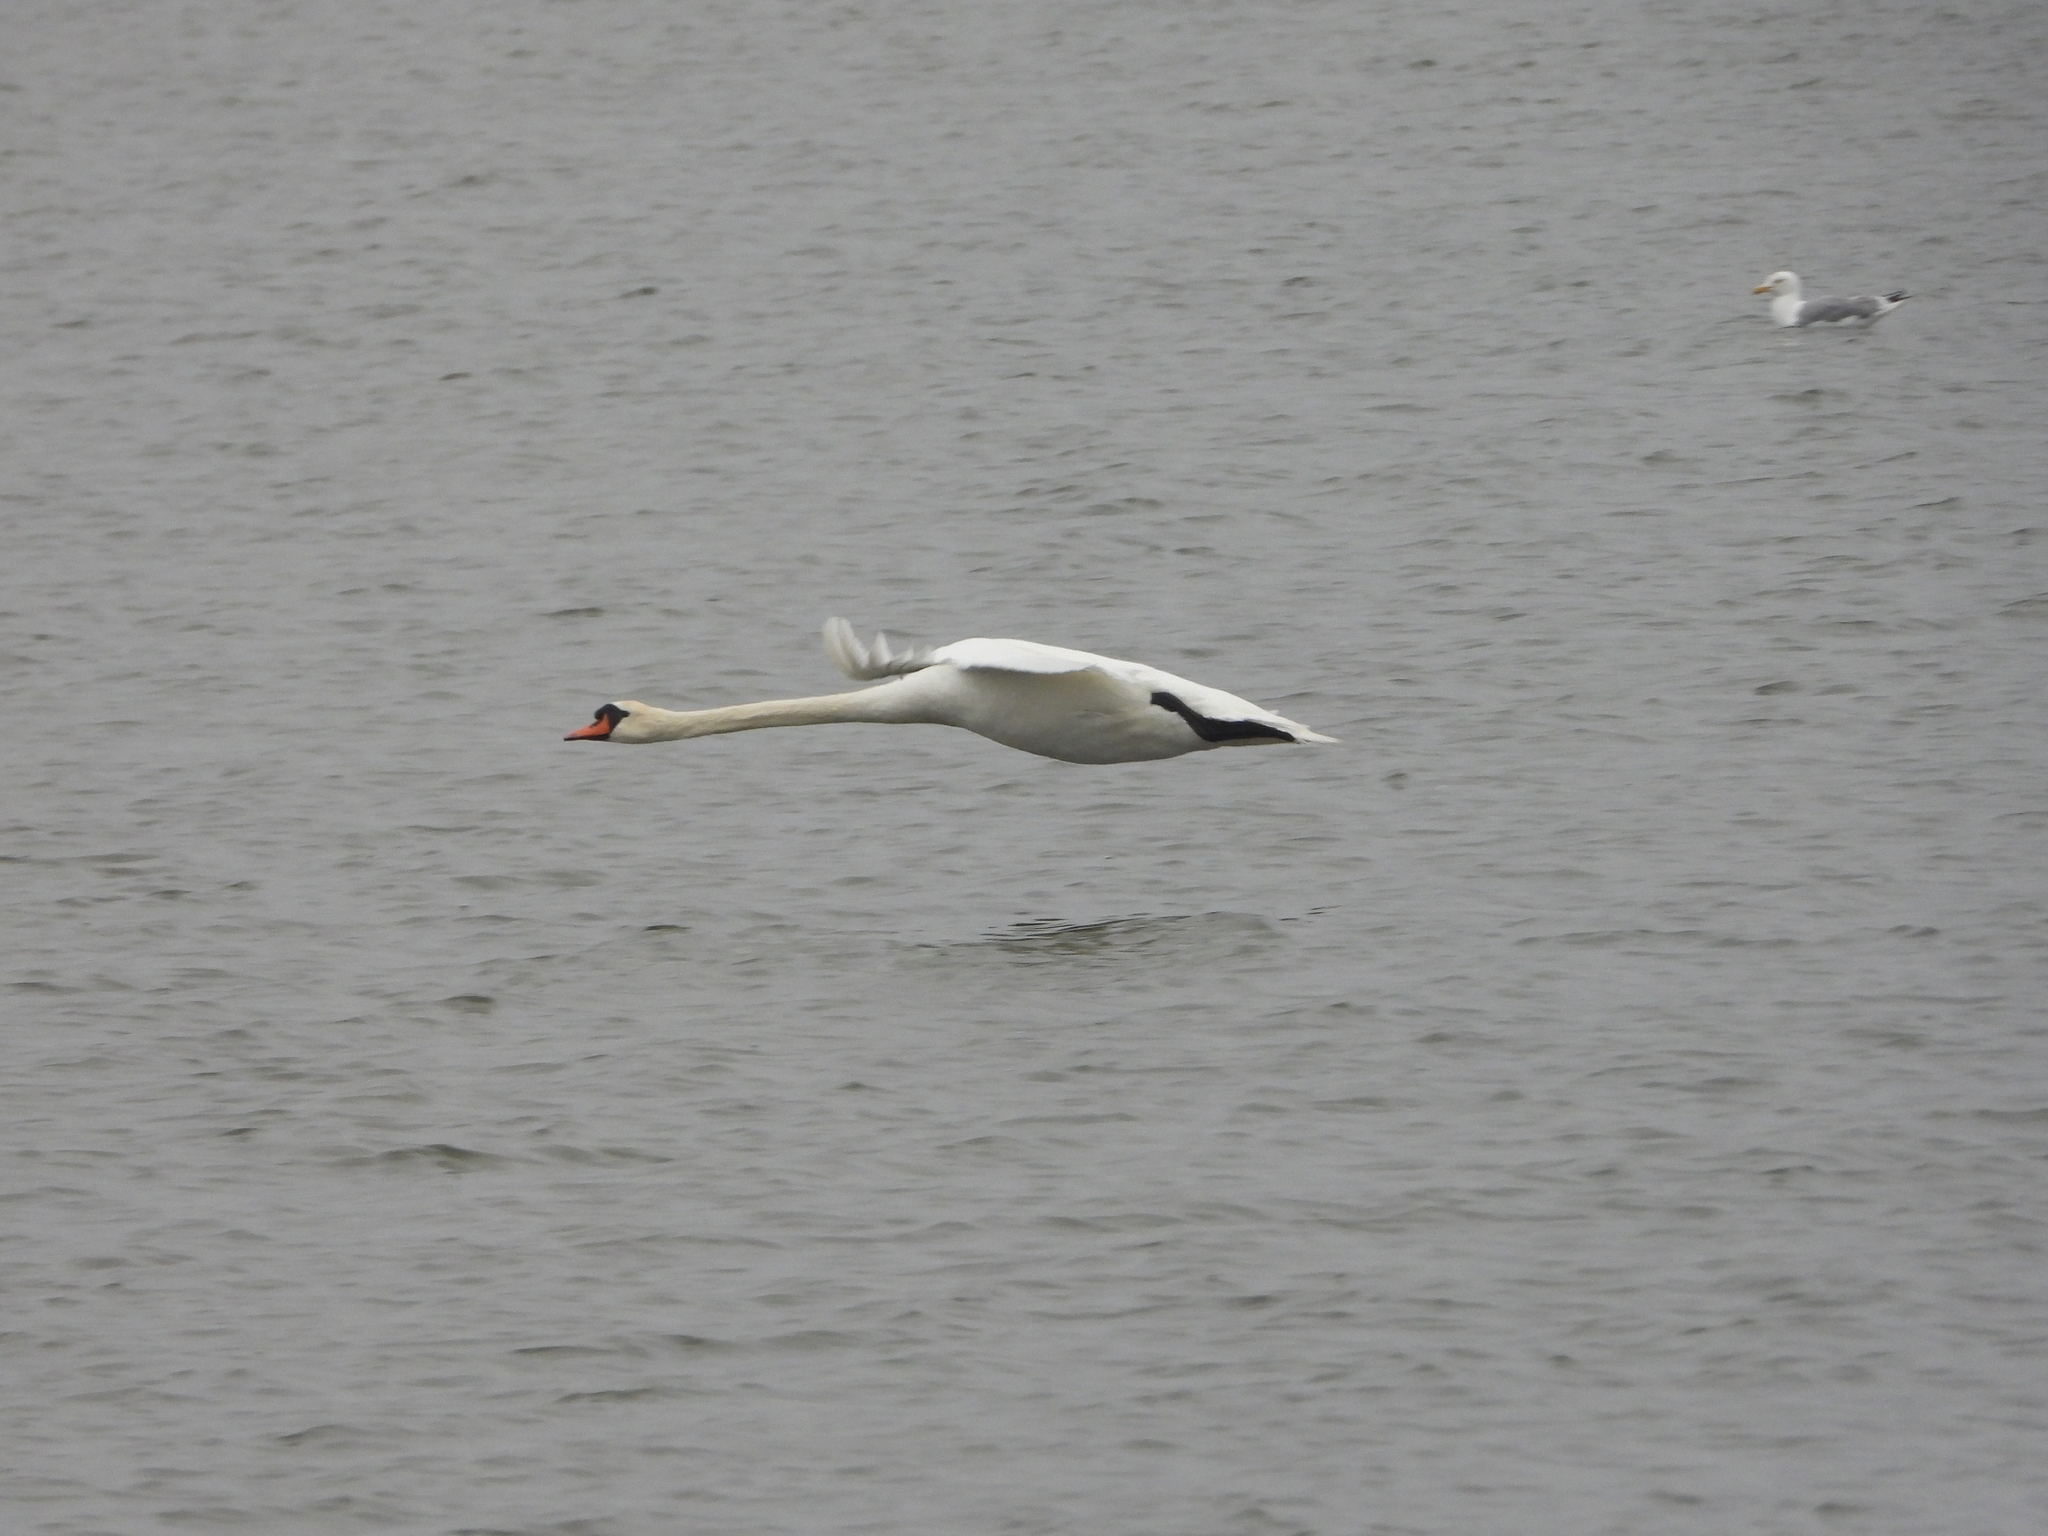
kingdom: Animalia
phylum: Chordata
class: Aves
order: Anseriformes
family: Anatidae
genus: Cygnus
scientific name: Cygnus olor
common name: Mute swan
